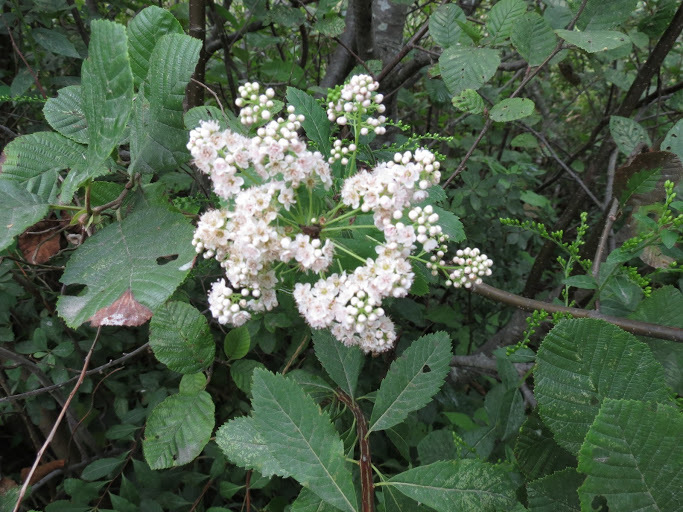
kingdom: Plantae
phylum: Tracheophyta
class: Magnoliopsida
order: Rosales
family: Rosaceae
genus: Spiraea
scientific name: Spiraea alba
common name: Pale bridewort
